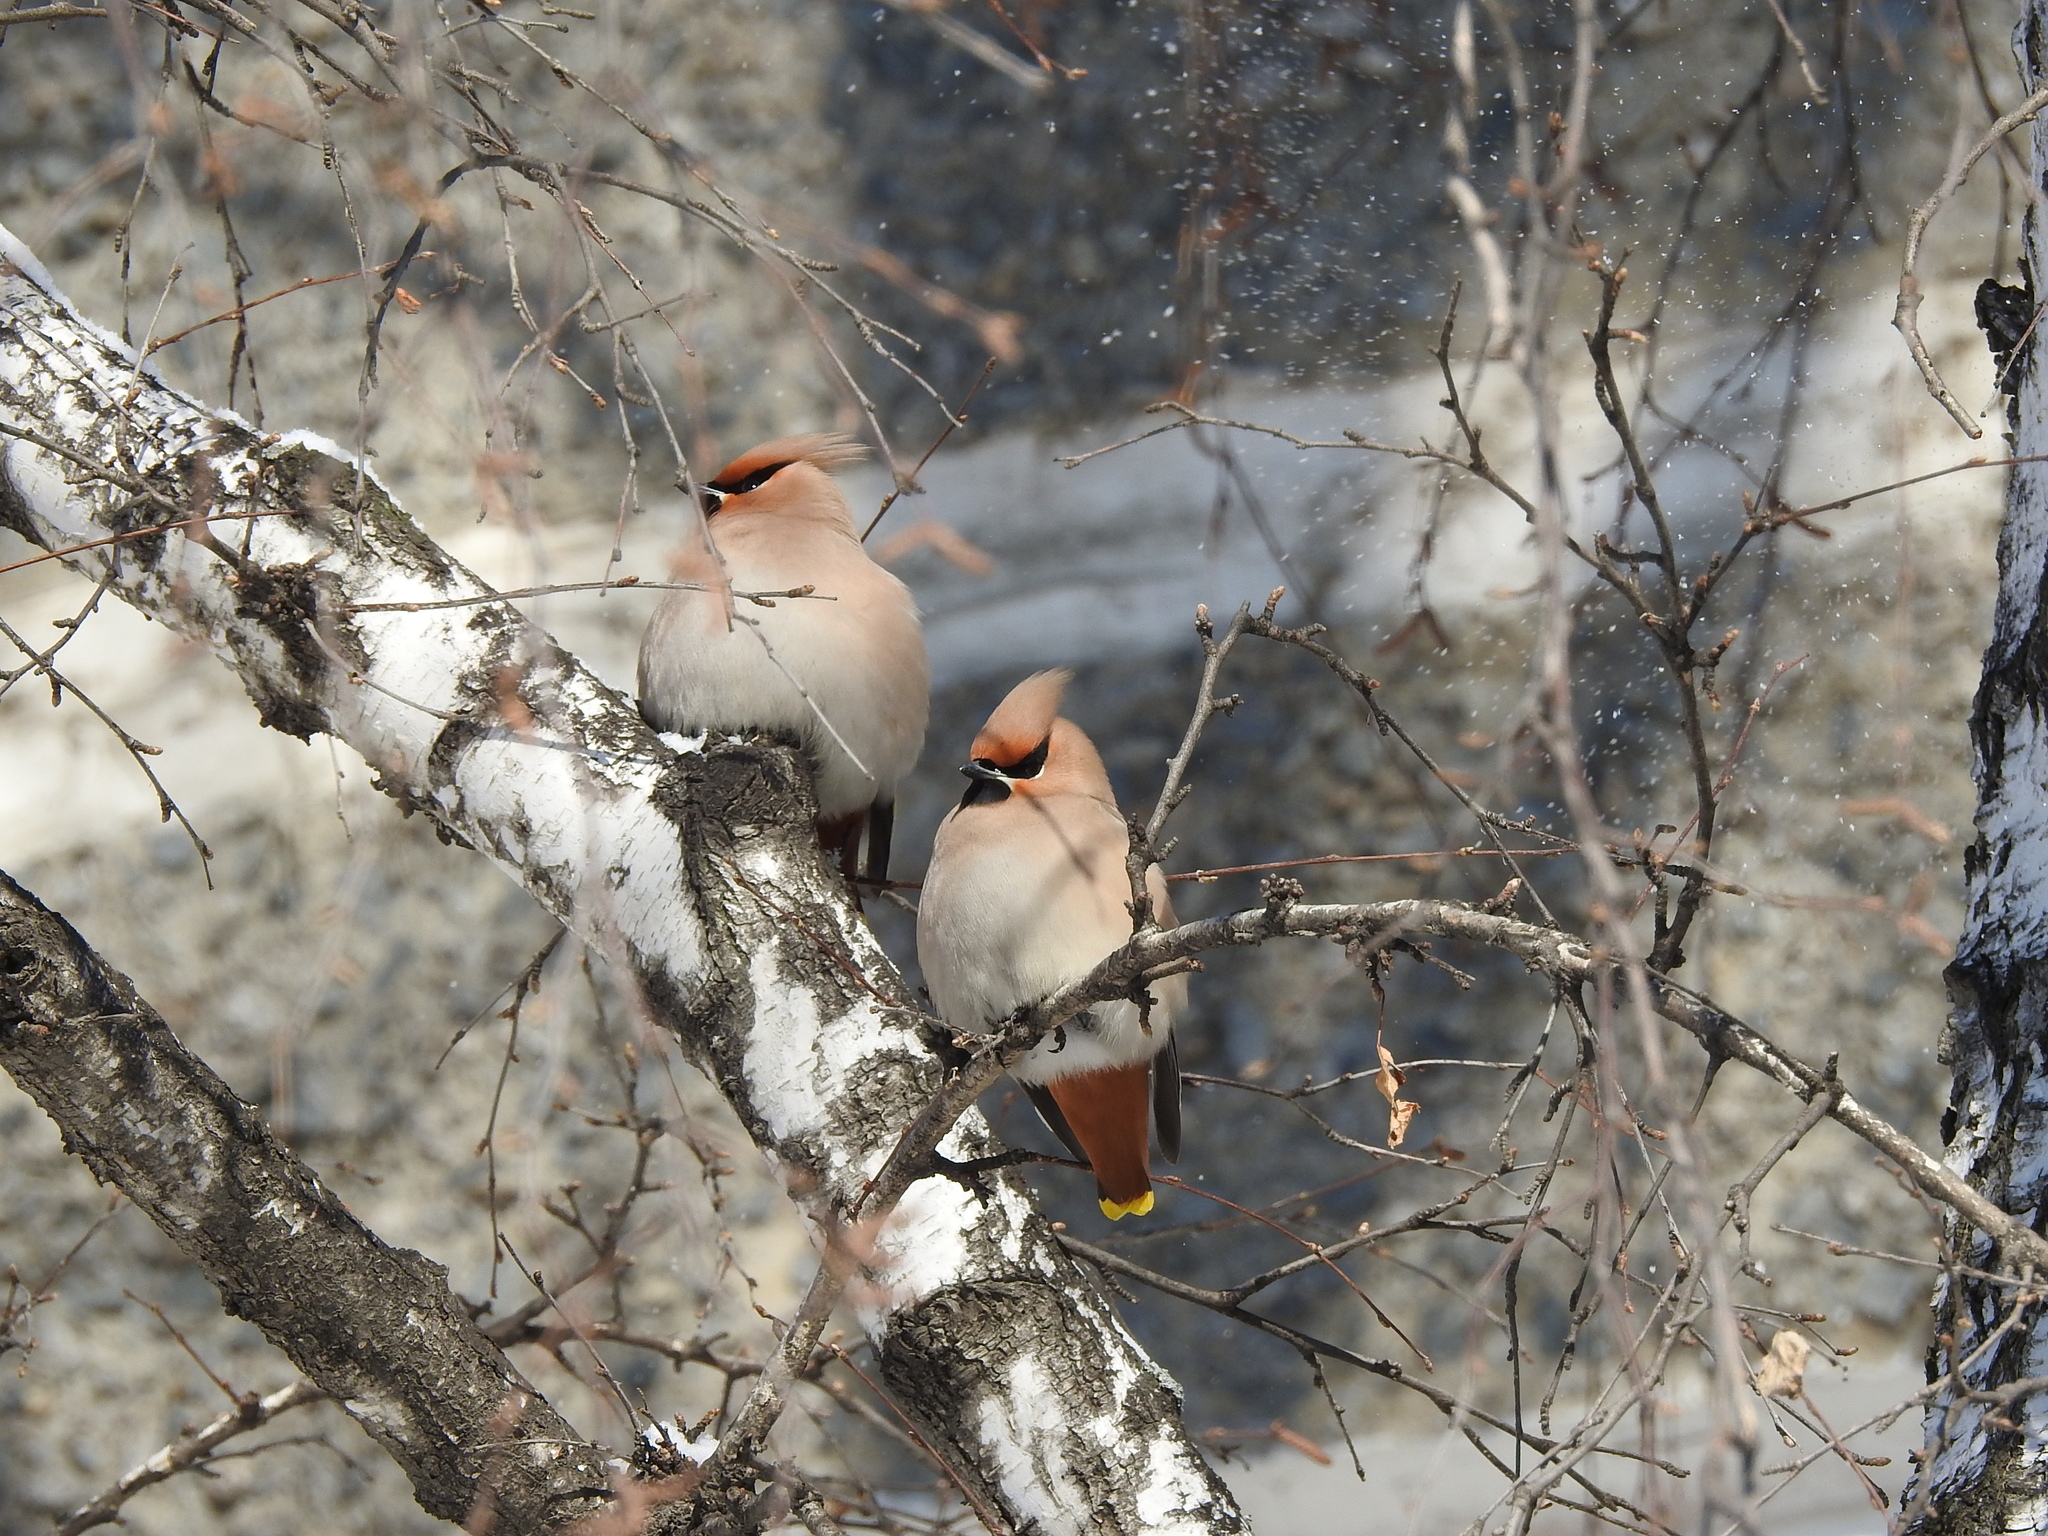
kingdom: Animalia
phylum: Chordata
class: Aves
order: Passeriformes
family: Bombycillidae
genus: Bombycilla
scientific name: Bombycilla garrulus
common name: Bohemian waxwing
